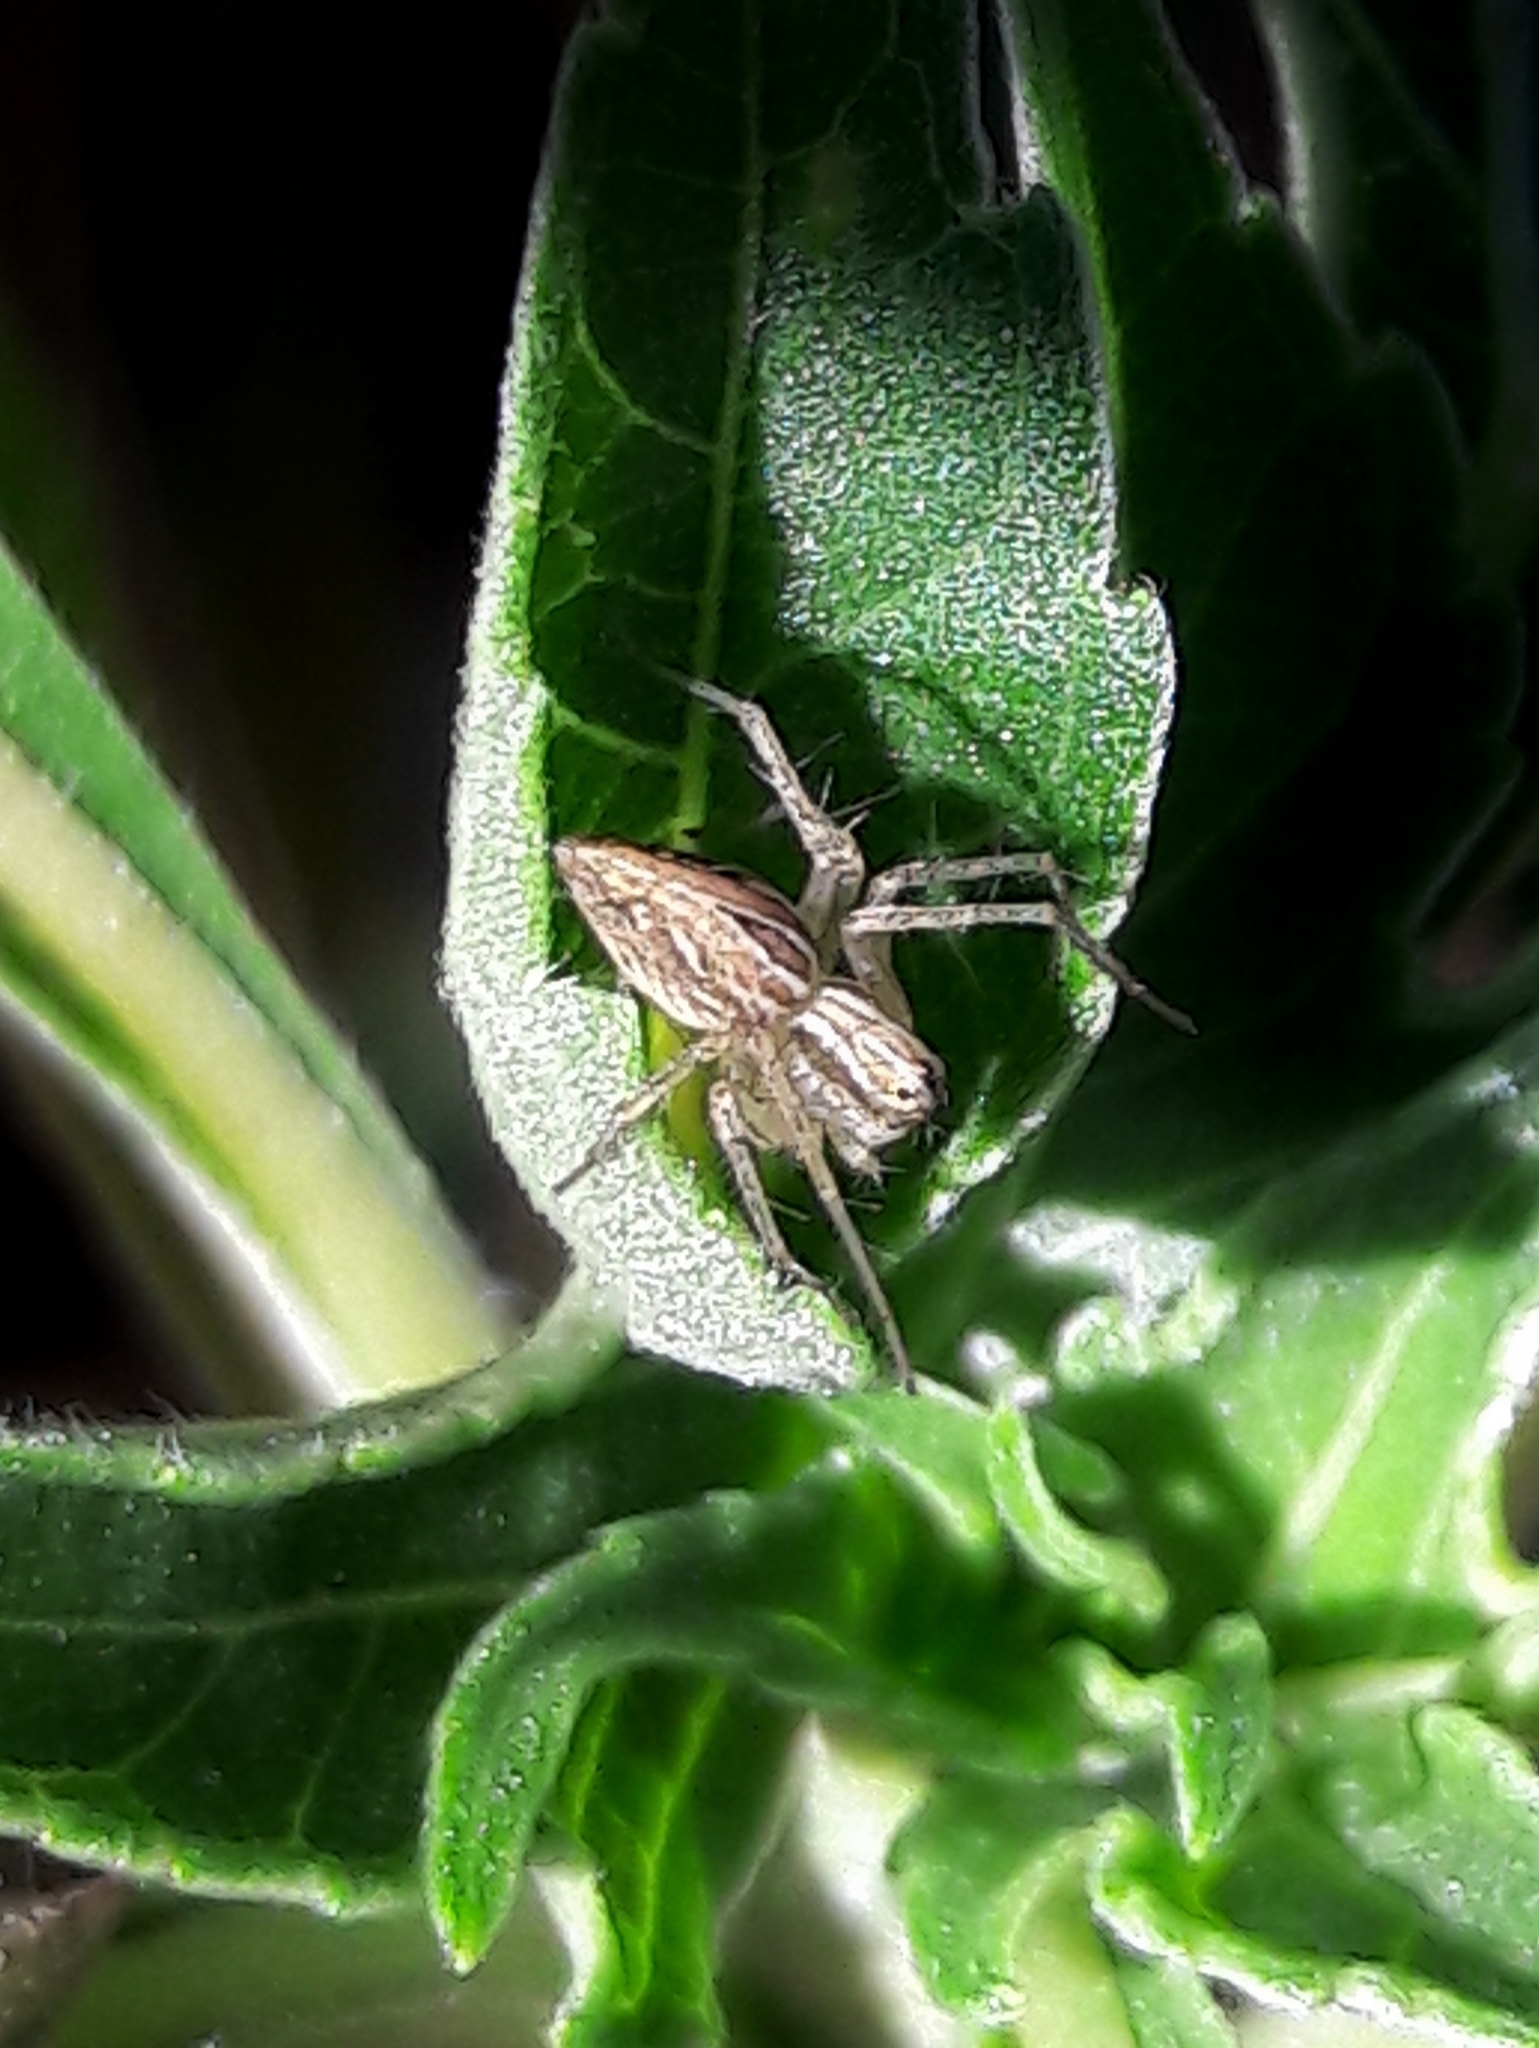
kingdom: Animalia
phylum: Arthropoda
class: Arachnida
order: Araneae
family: Oxyopidae
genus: Oxyopes
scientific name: Oxyopes salticus
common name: Lynx spiders
